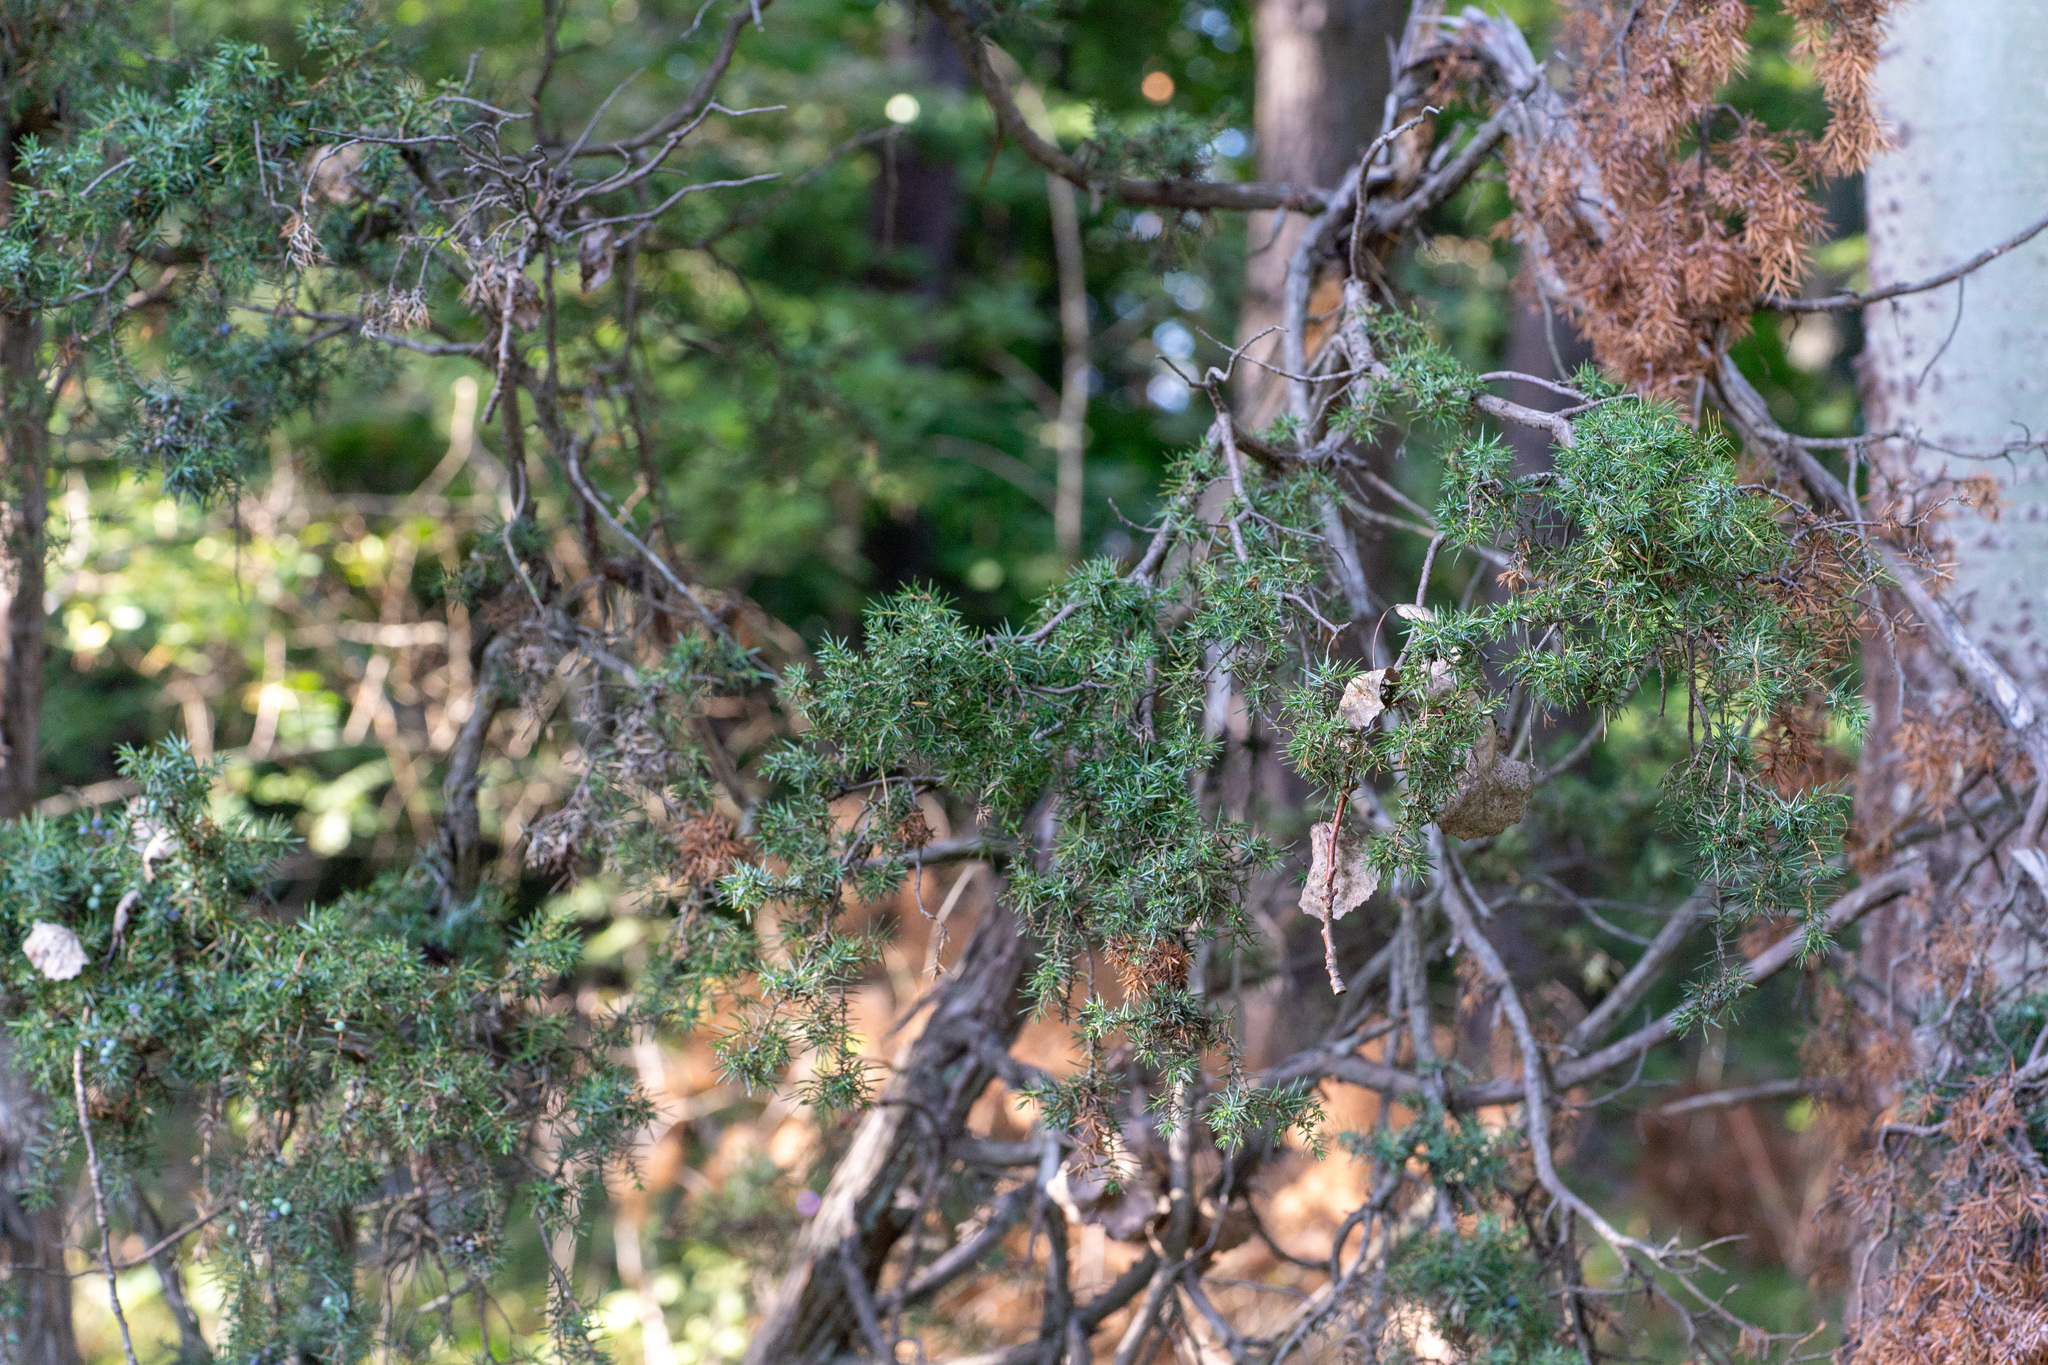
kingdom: Plantae
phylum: Tracheophyta
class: Pinopsida
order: Pinales
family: Cupressaceae
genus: Juniperus
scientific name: Juniperus communis
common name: Common juniper
